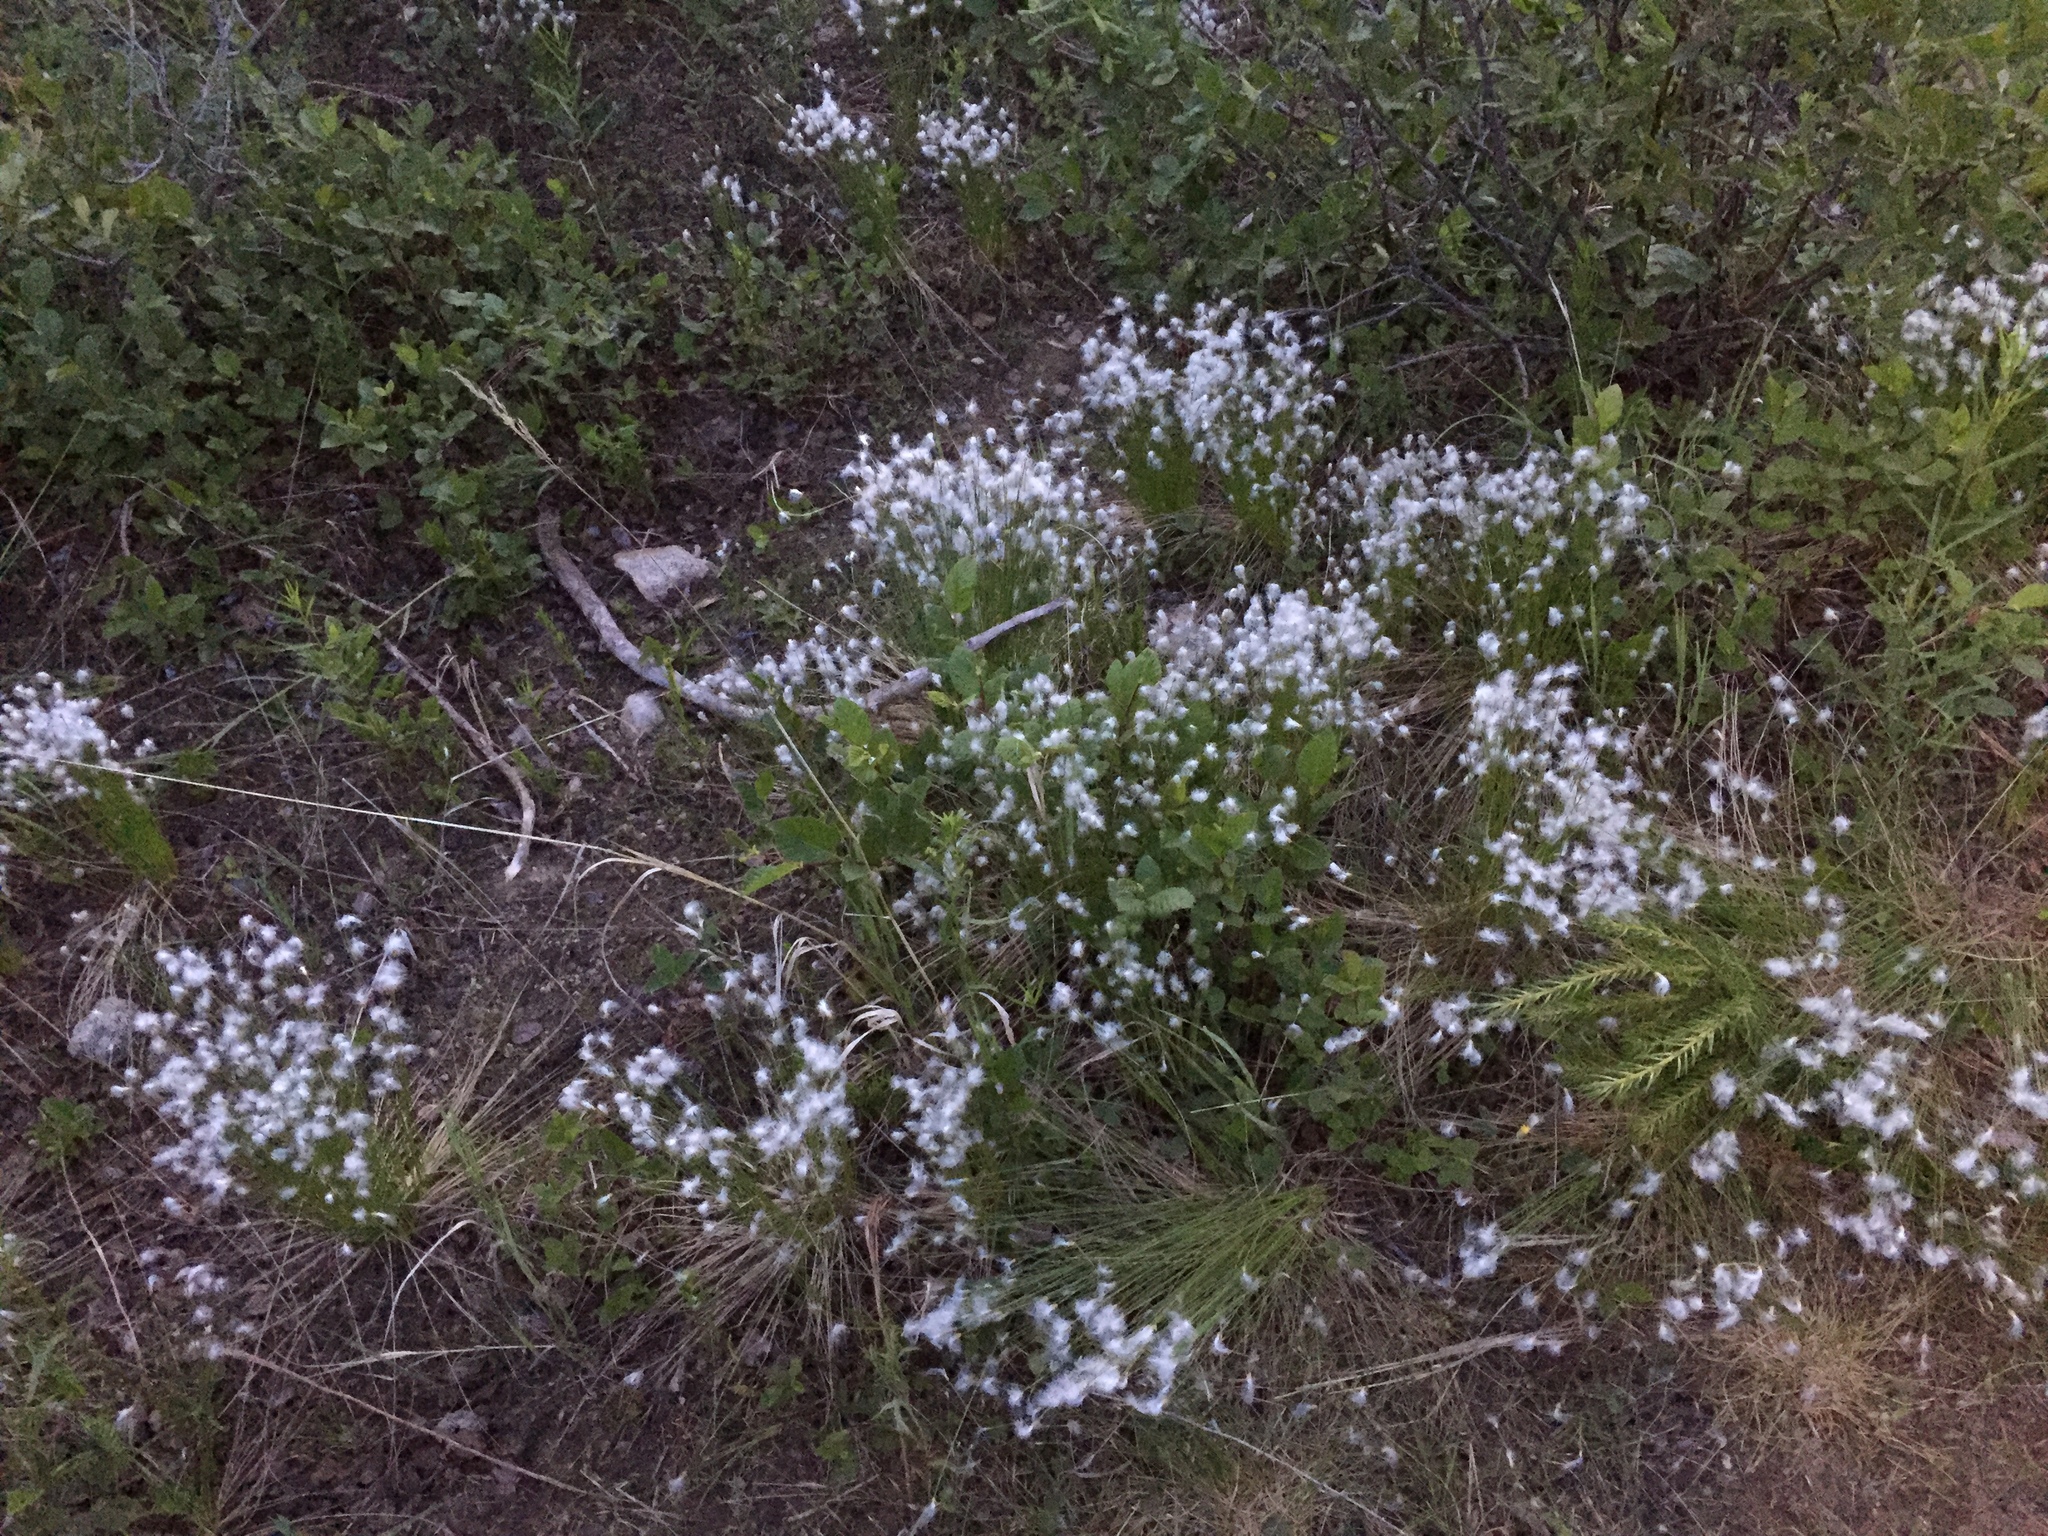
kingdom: Plantae
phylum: Tracheophyta
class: Liliopsida
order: Poales
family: Cyperaceae
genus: Trichophorum
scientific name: Trichophorum alpinum
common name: Alpine bulrush
